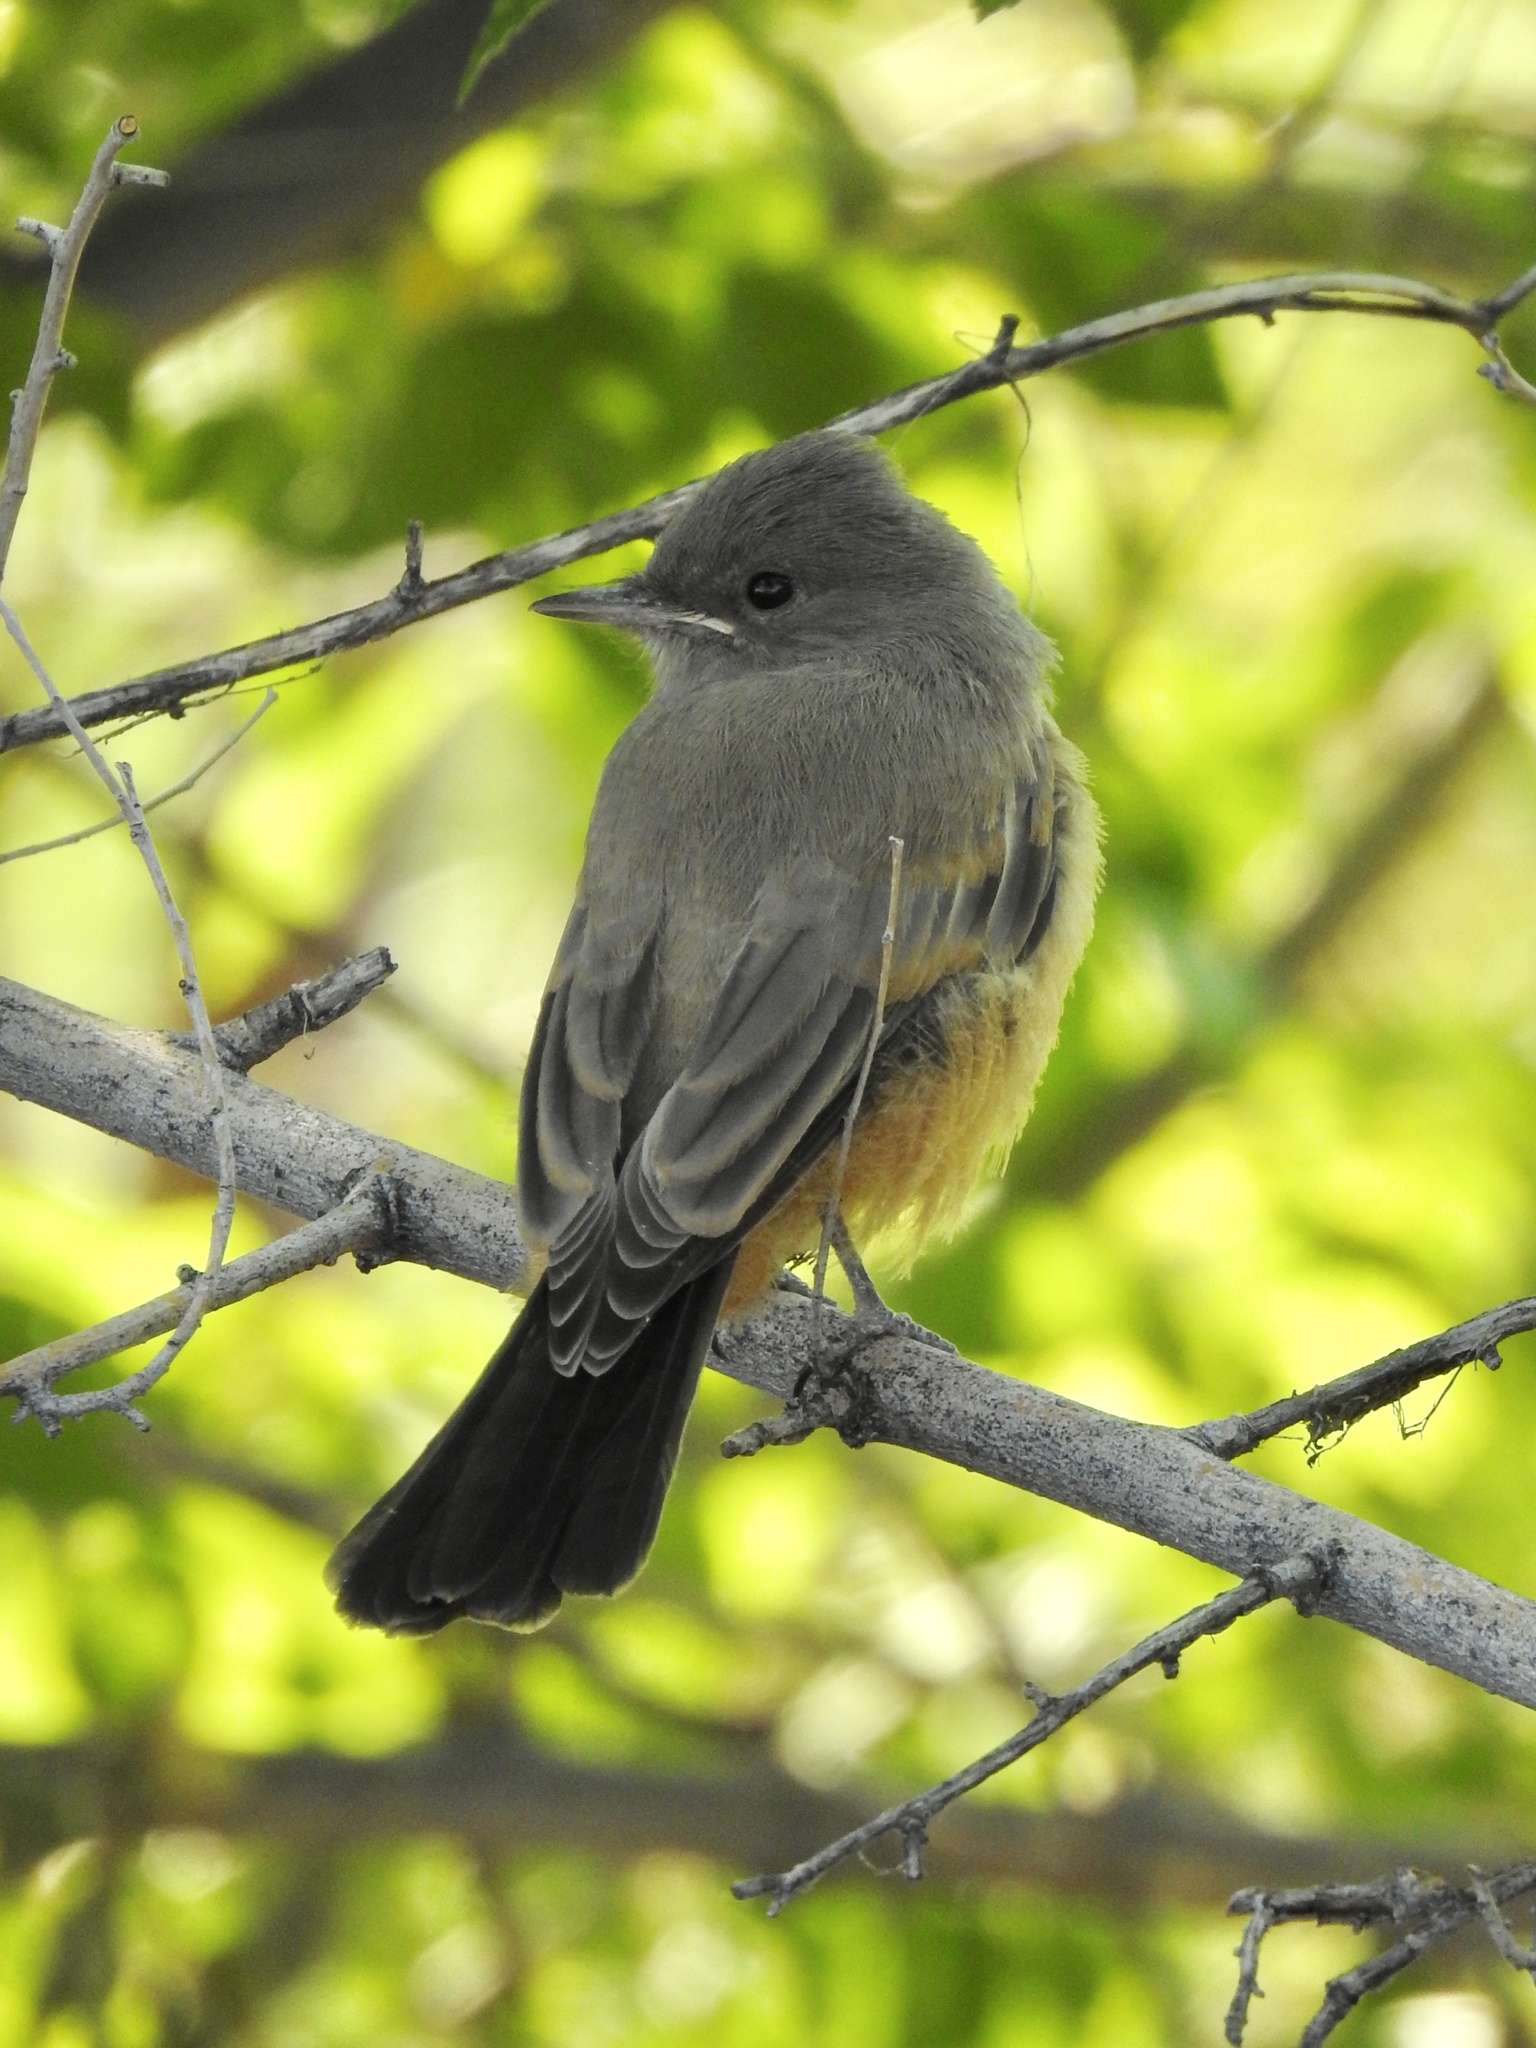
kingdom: Animalia
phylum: Chordata
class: Aves
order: Passeriformes
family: Tyrannidae
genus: Sayornis
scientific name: Sayornis saya
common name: Say's phoebe
